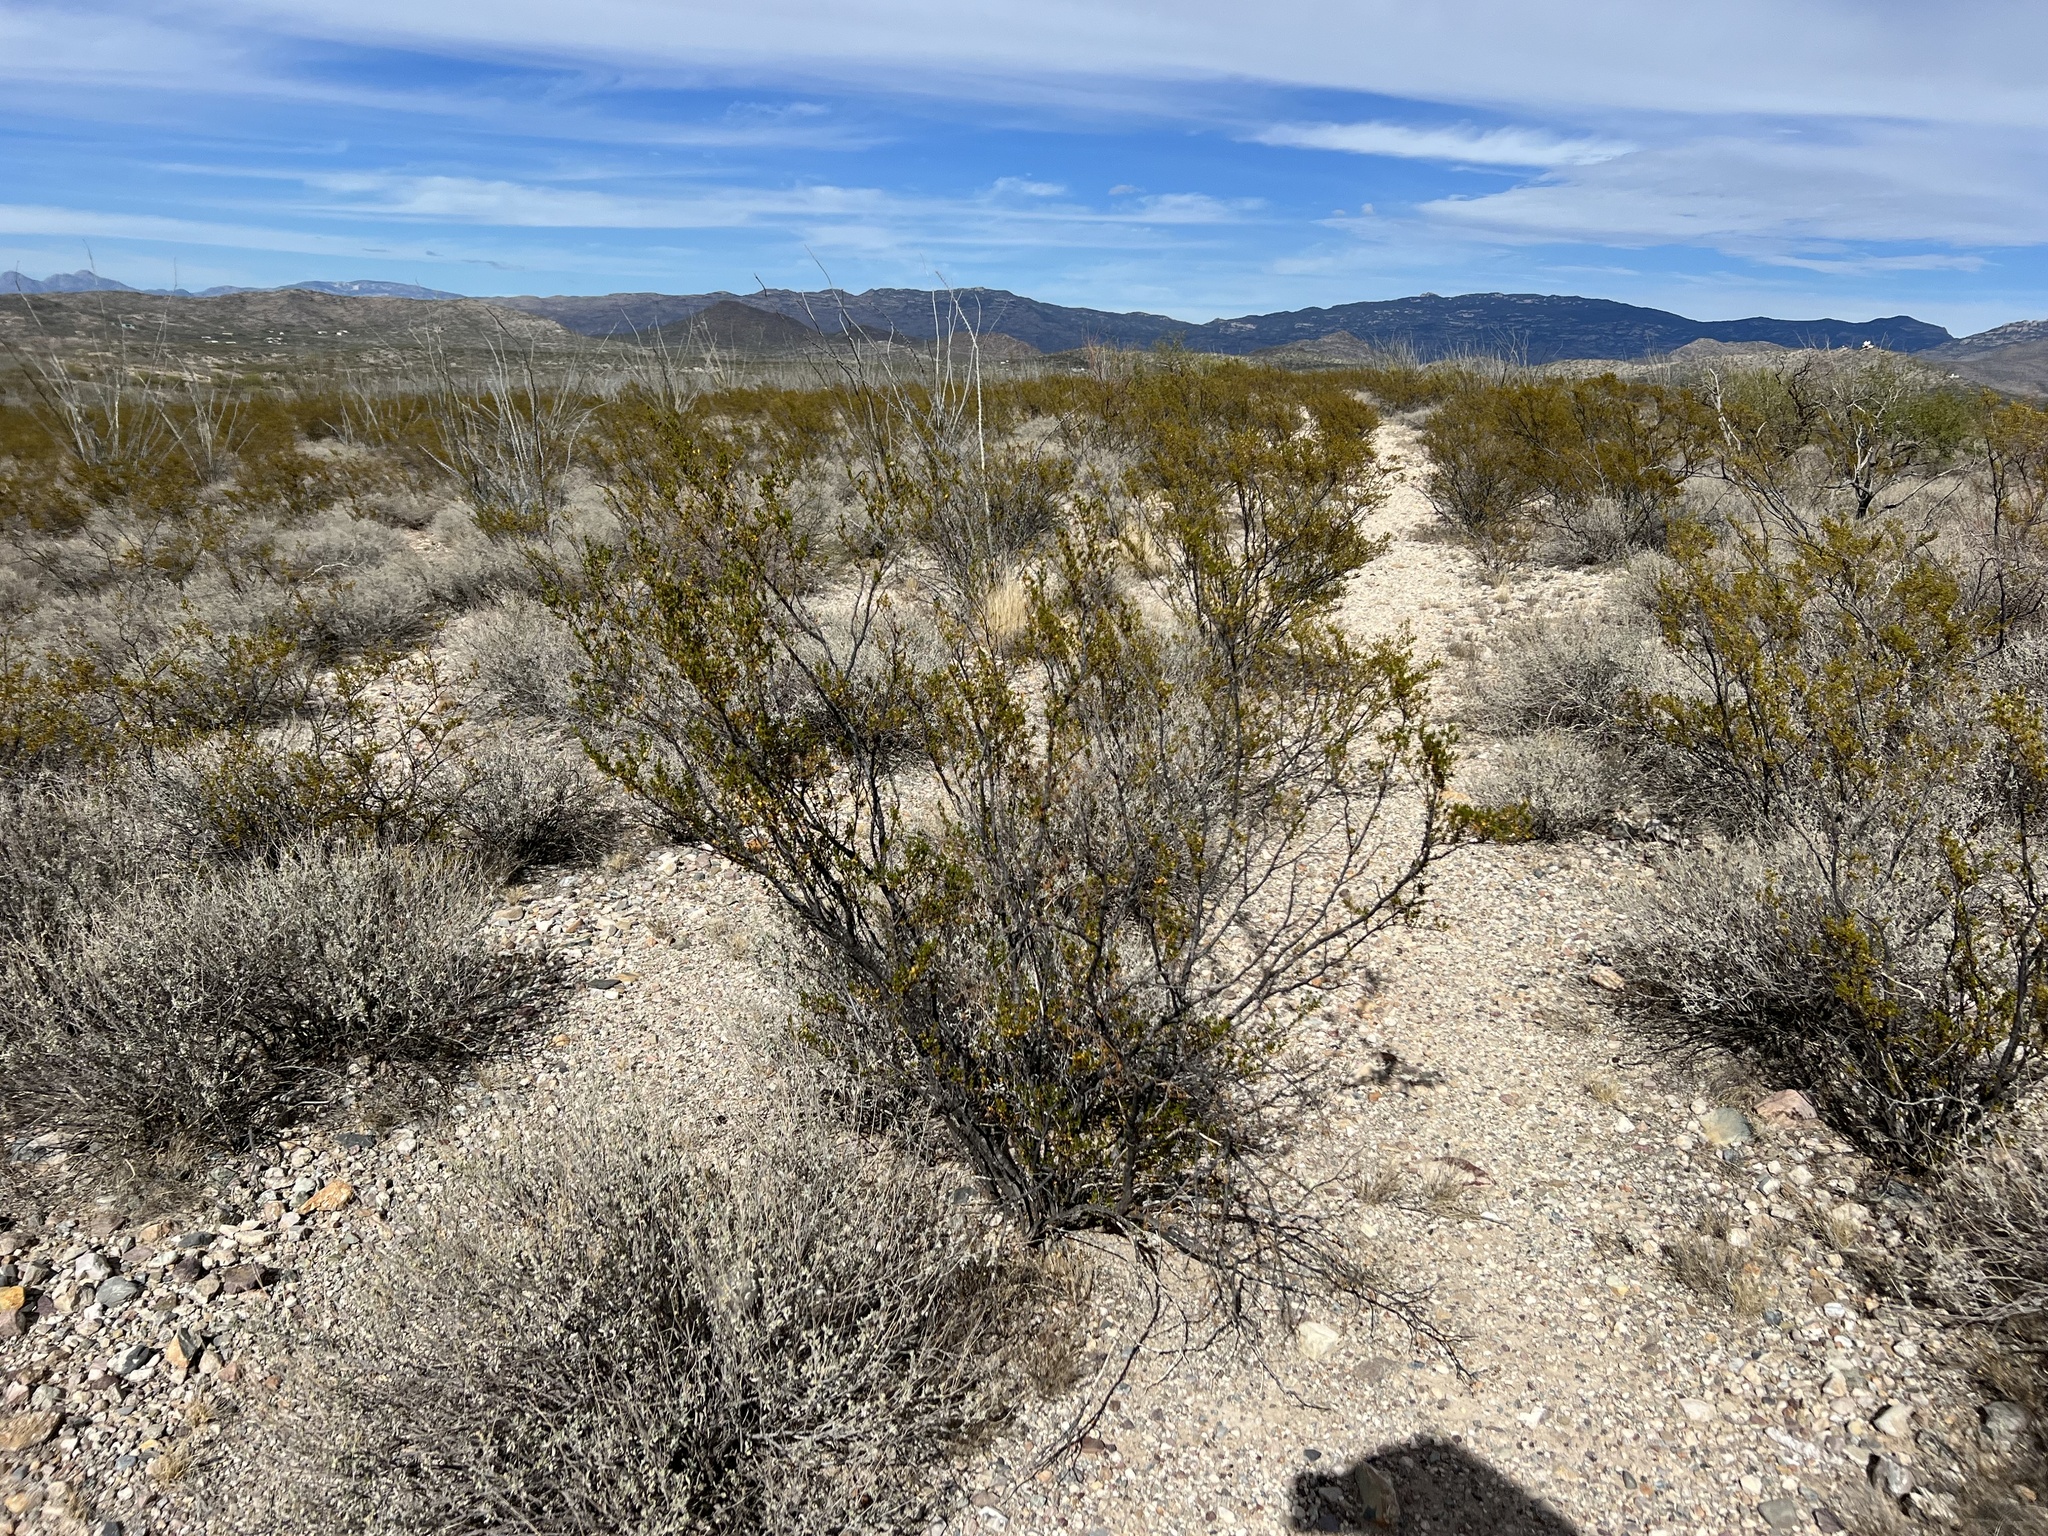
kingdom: Plantae
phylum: Tracheophyta
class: Magnoliopsida
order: Zygophyllales
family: Zygophyllaceae
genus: Larrea
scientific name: Larrea tridentata
